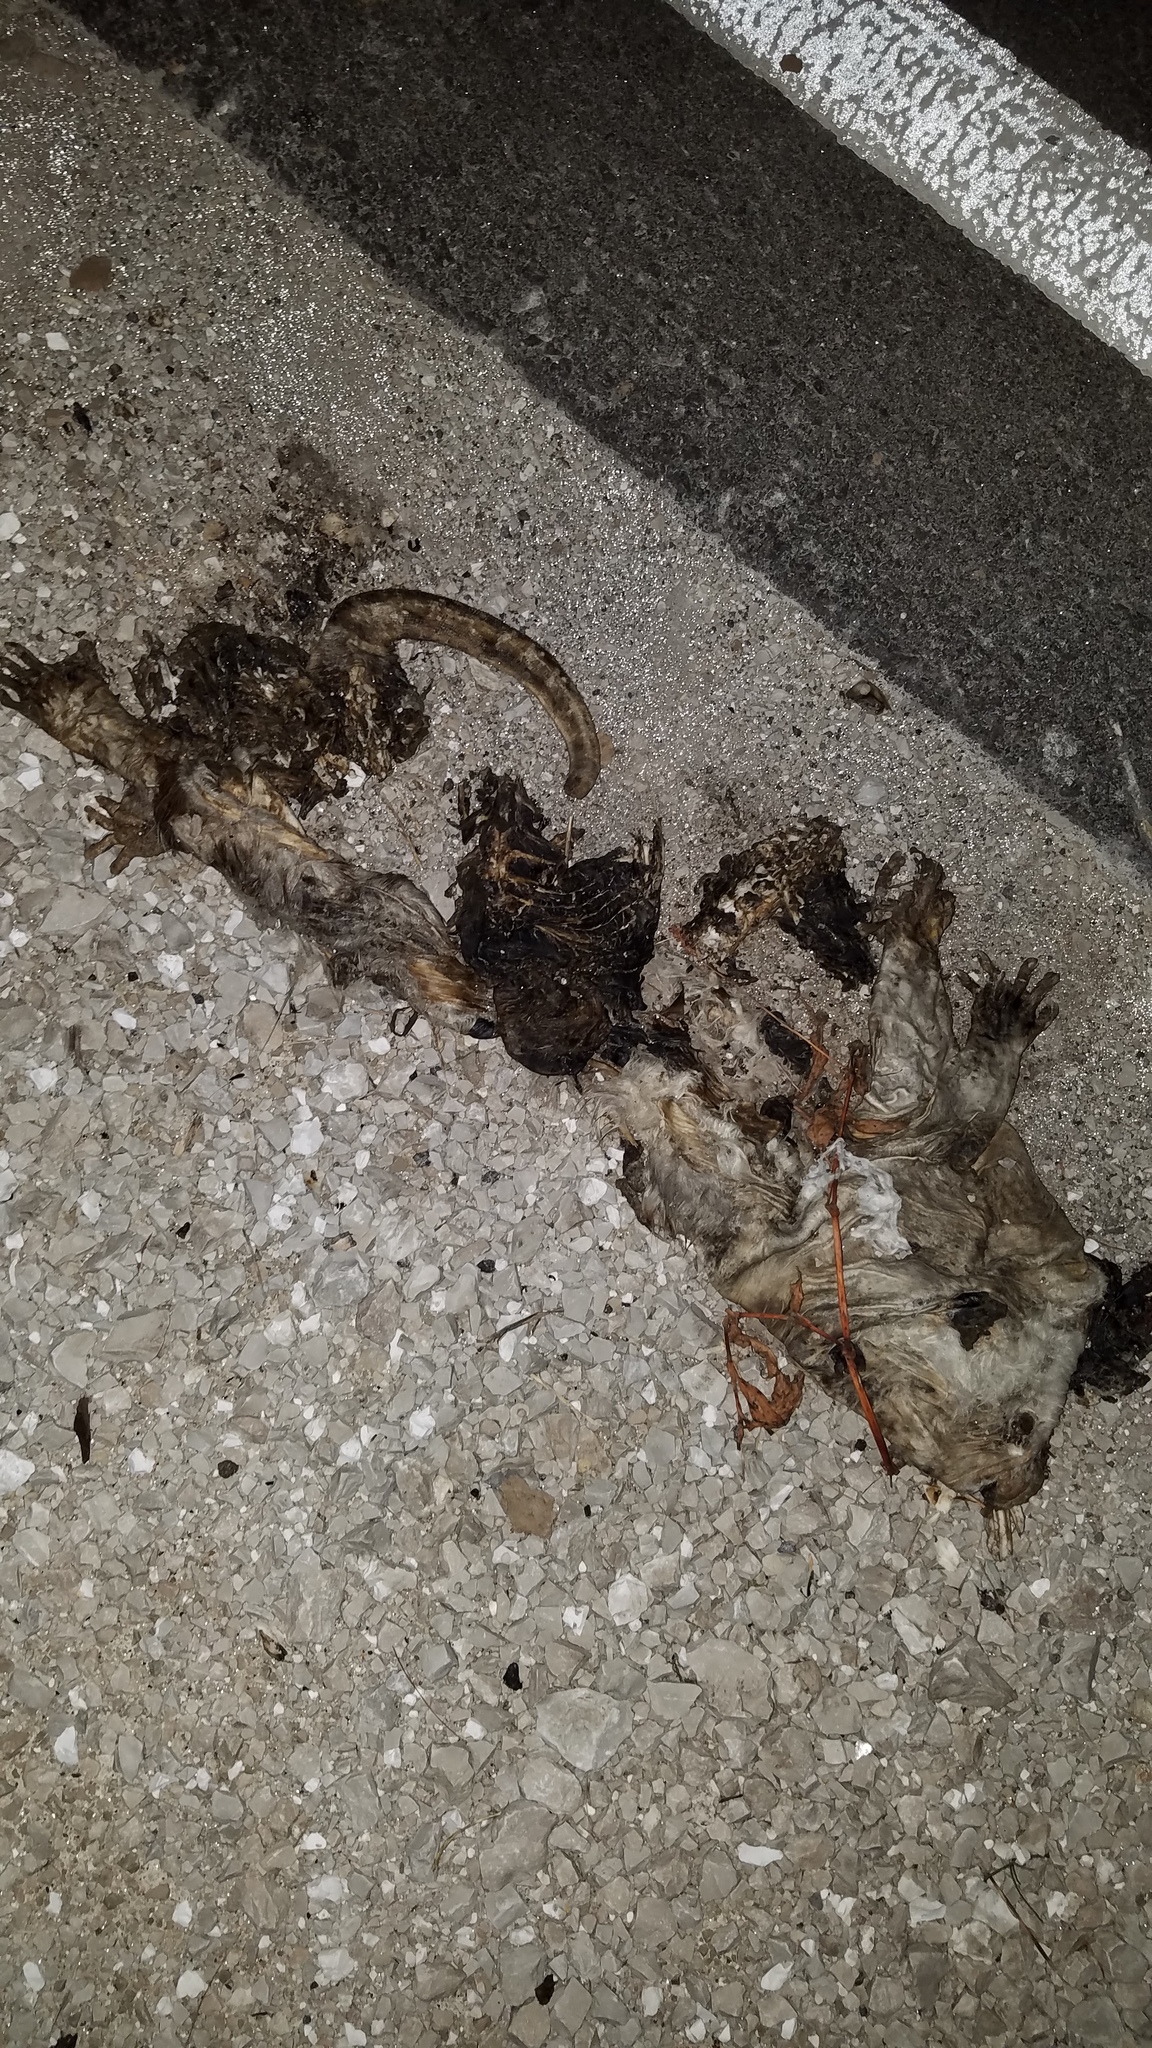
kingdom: Animalia
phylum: Chordata
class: Mammalia
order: Didelphimorphia
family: Didelphidae
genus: Didelphis
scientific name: Didelphis virginiana
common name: Virginia opossum
